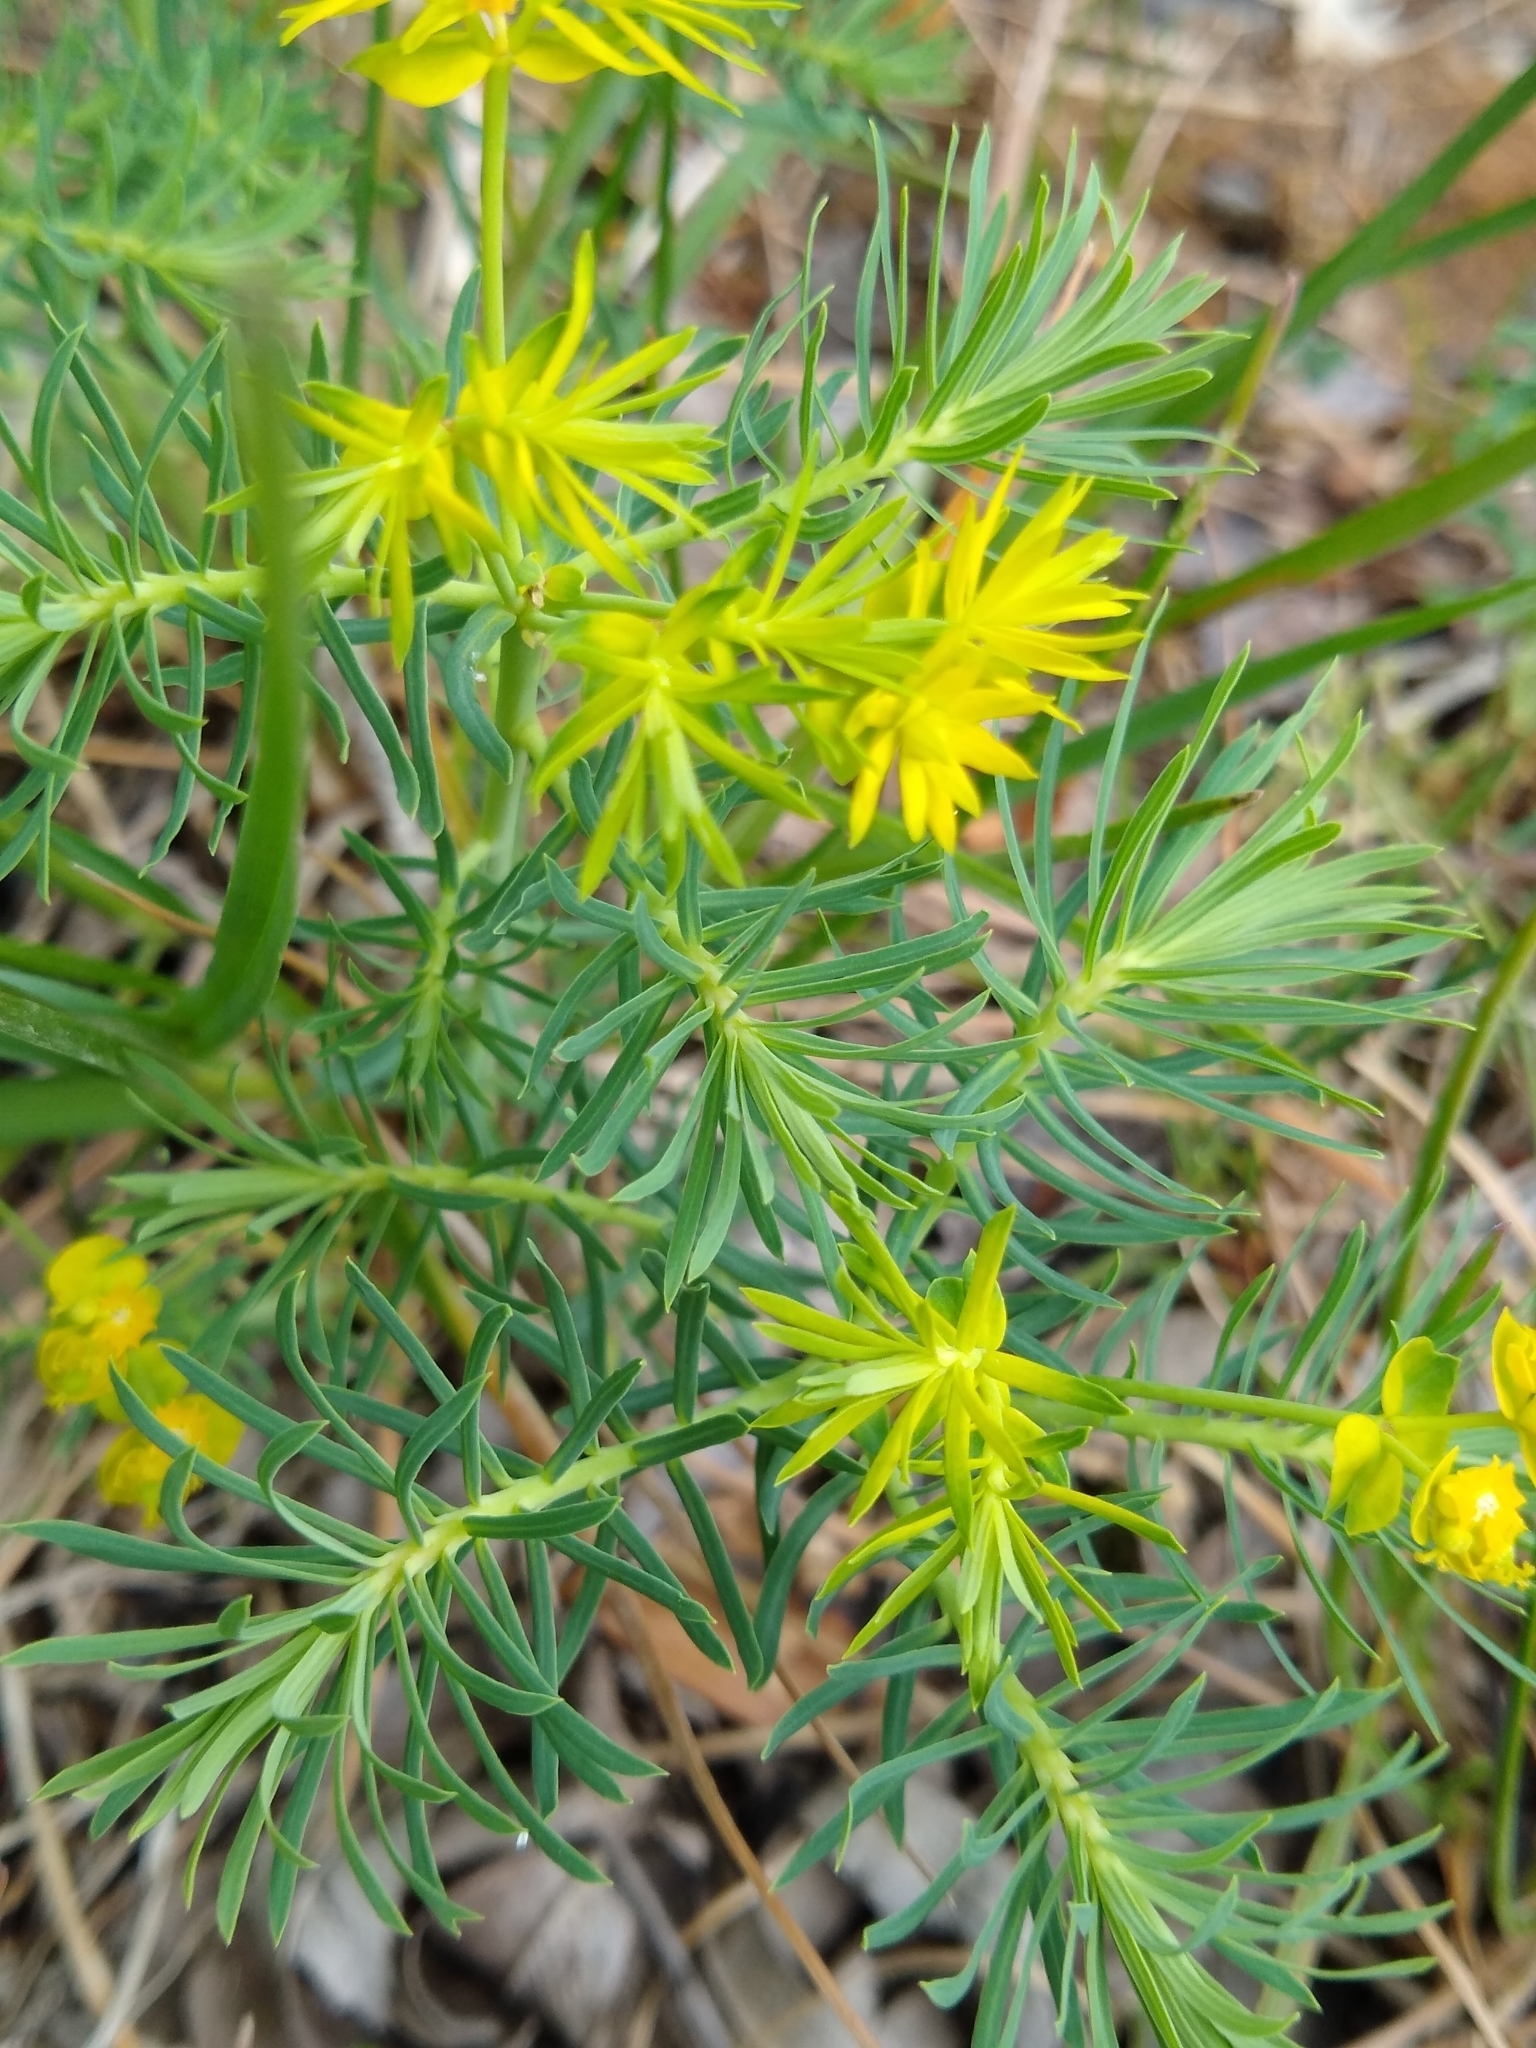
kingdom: Plantae
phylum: Tracheophyta
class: Magnoliopsida
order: Malpighiales
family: Euphorbiaceae
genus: Euphorbia
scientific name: Euphorbia cyparissias
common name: Cypress spurge
